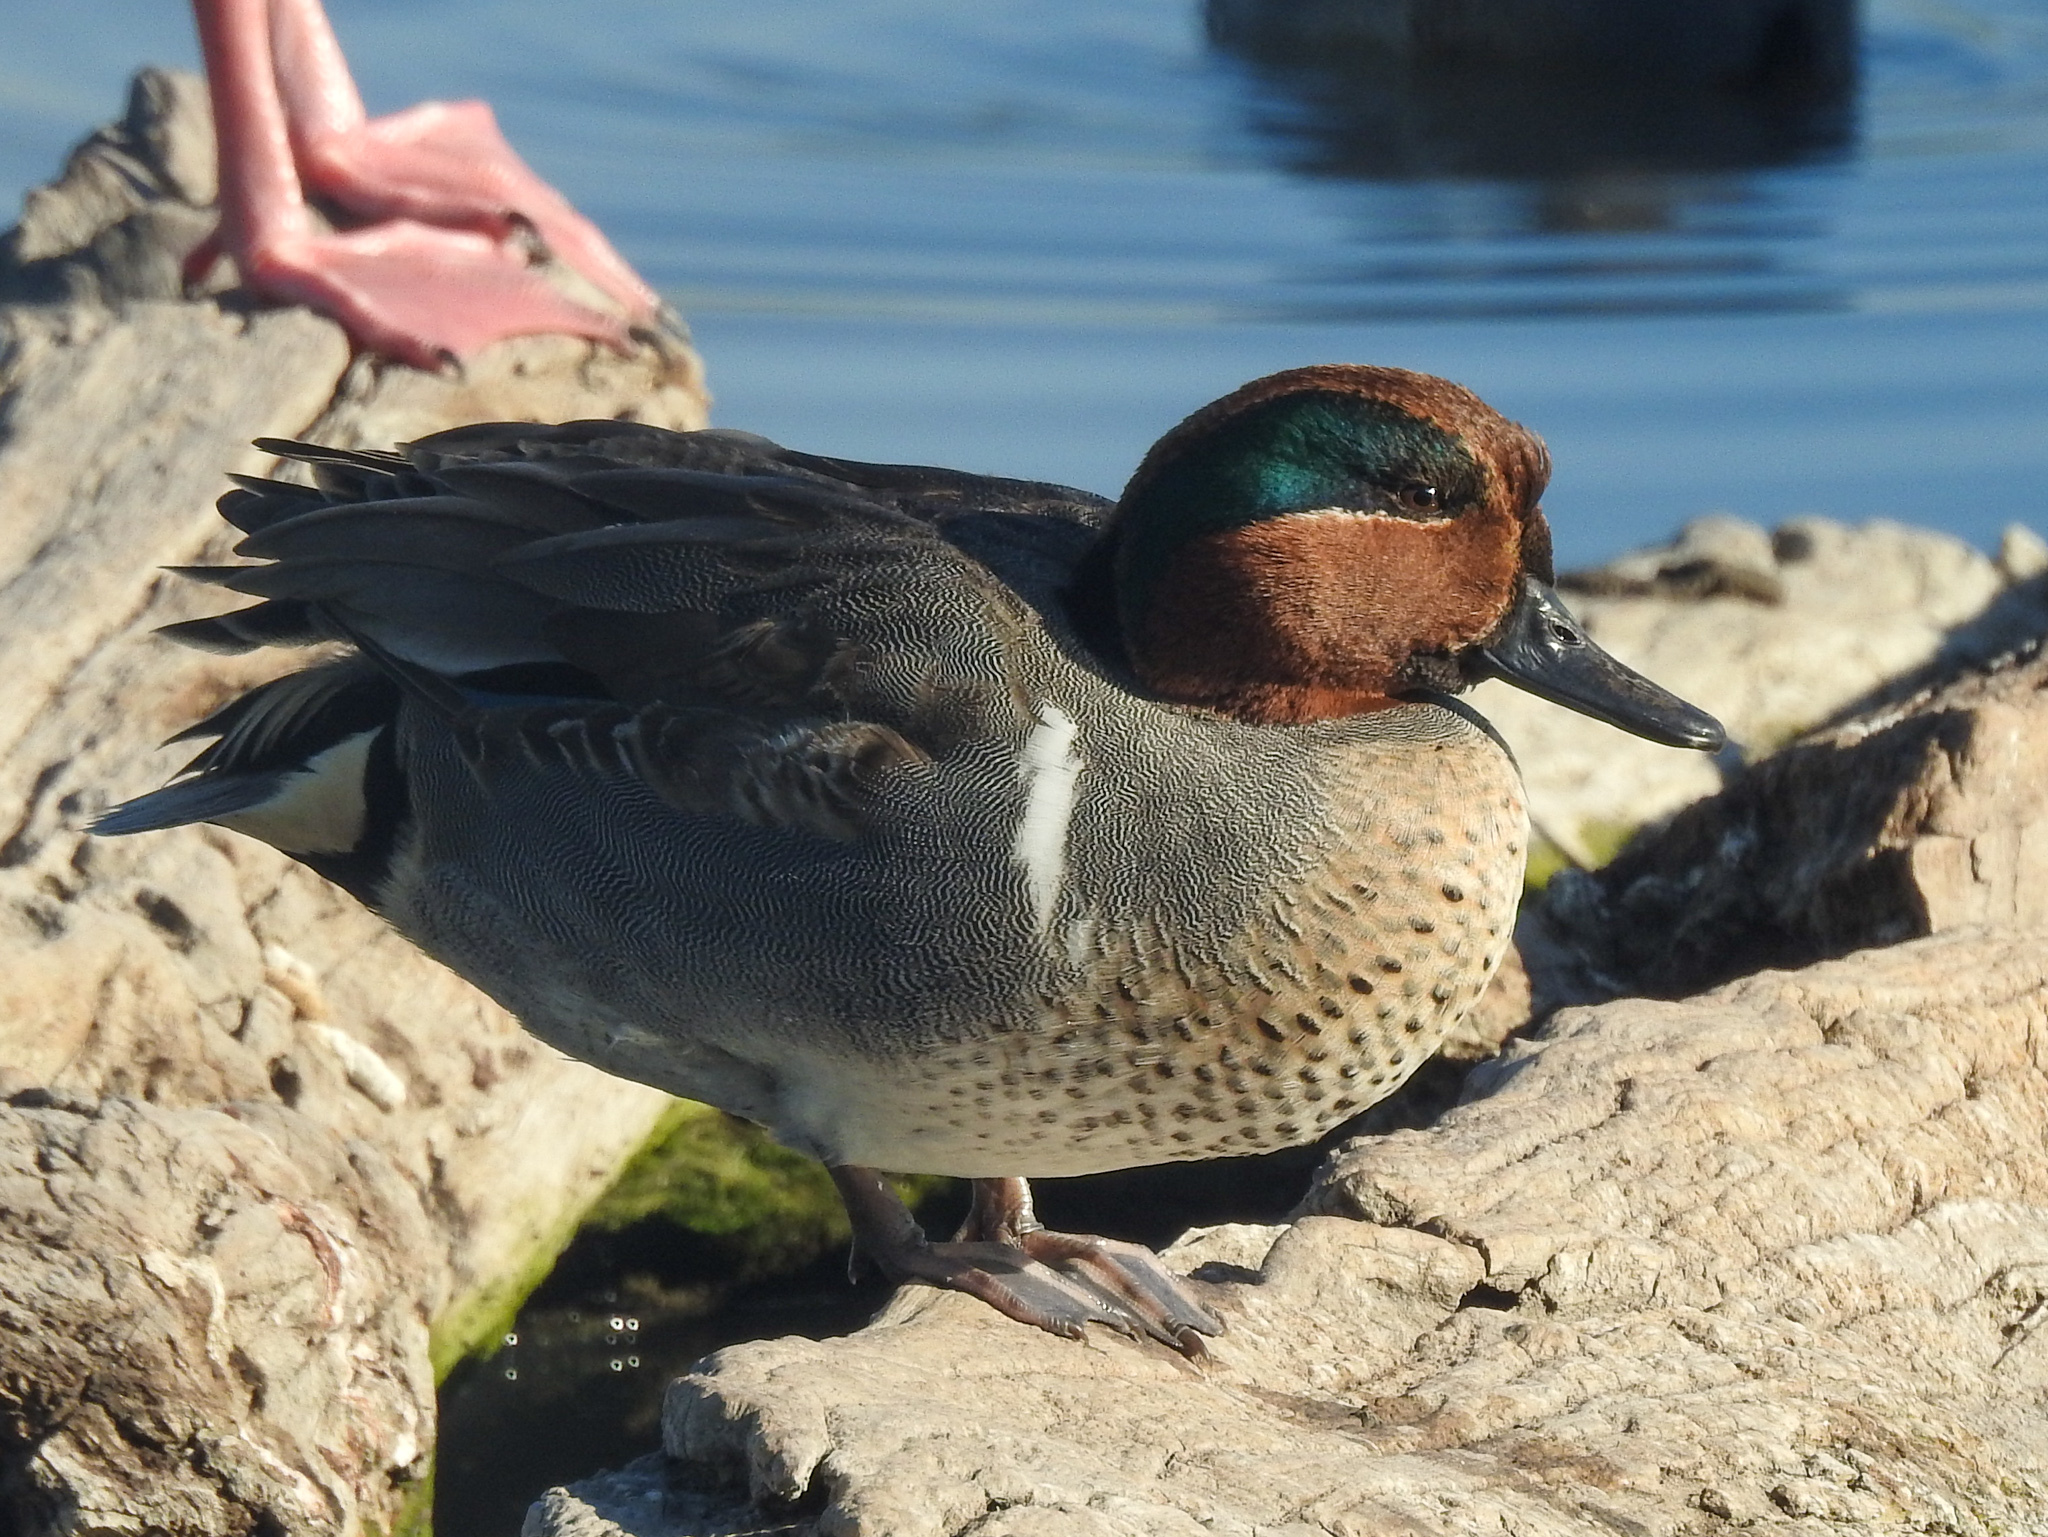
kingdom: Animalia
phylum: Chordata
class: Aves
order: Anseriformes
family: Anatidae
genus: Anas
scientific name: Anas crecca
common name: Eurasian teal
